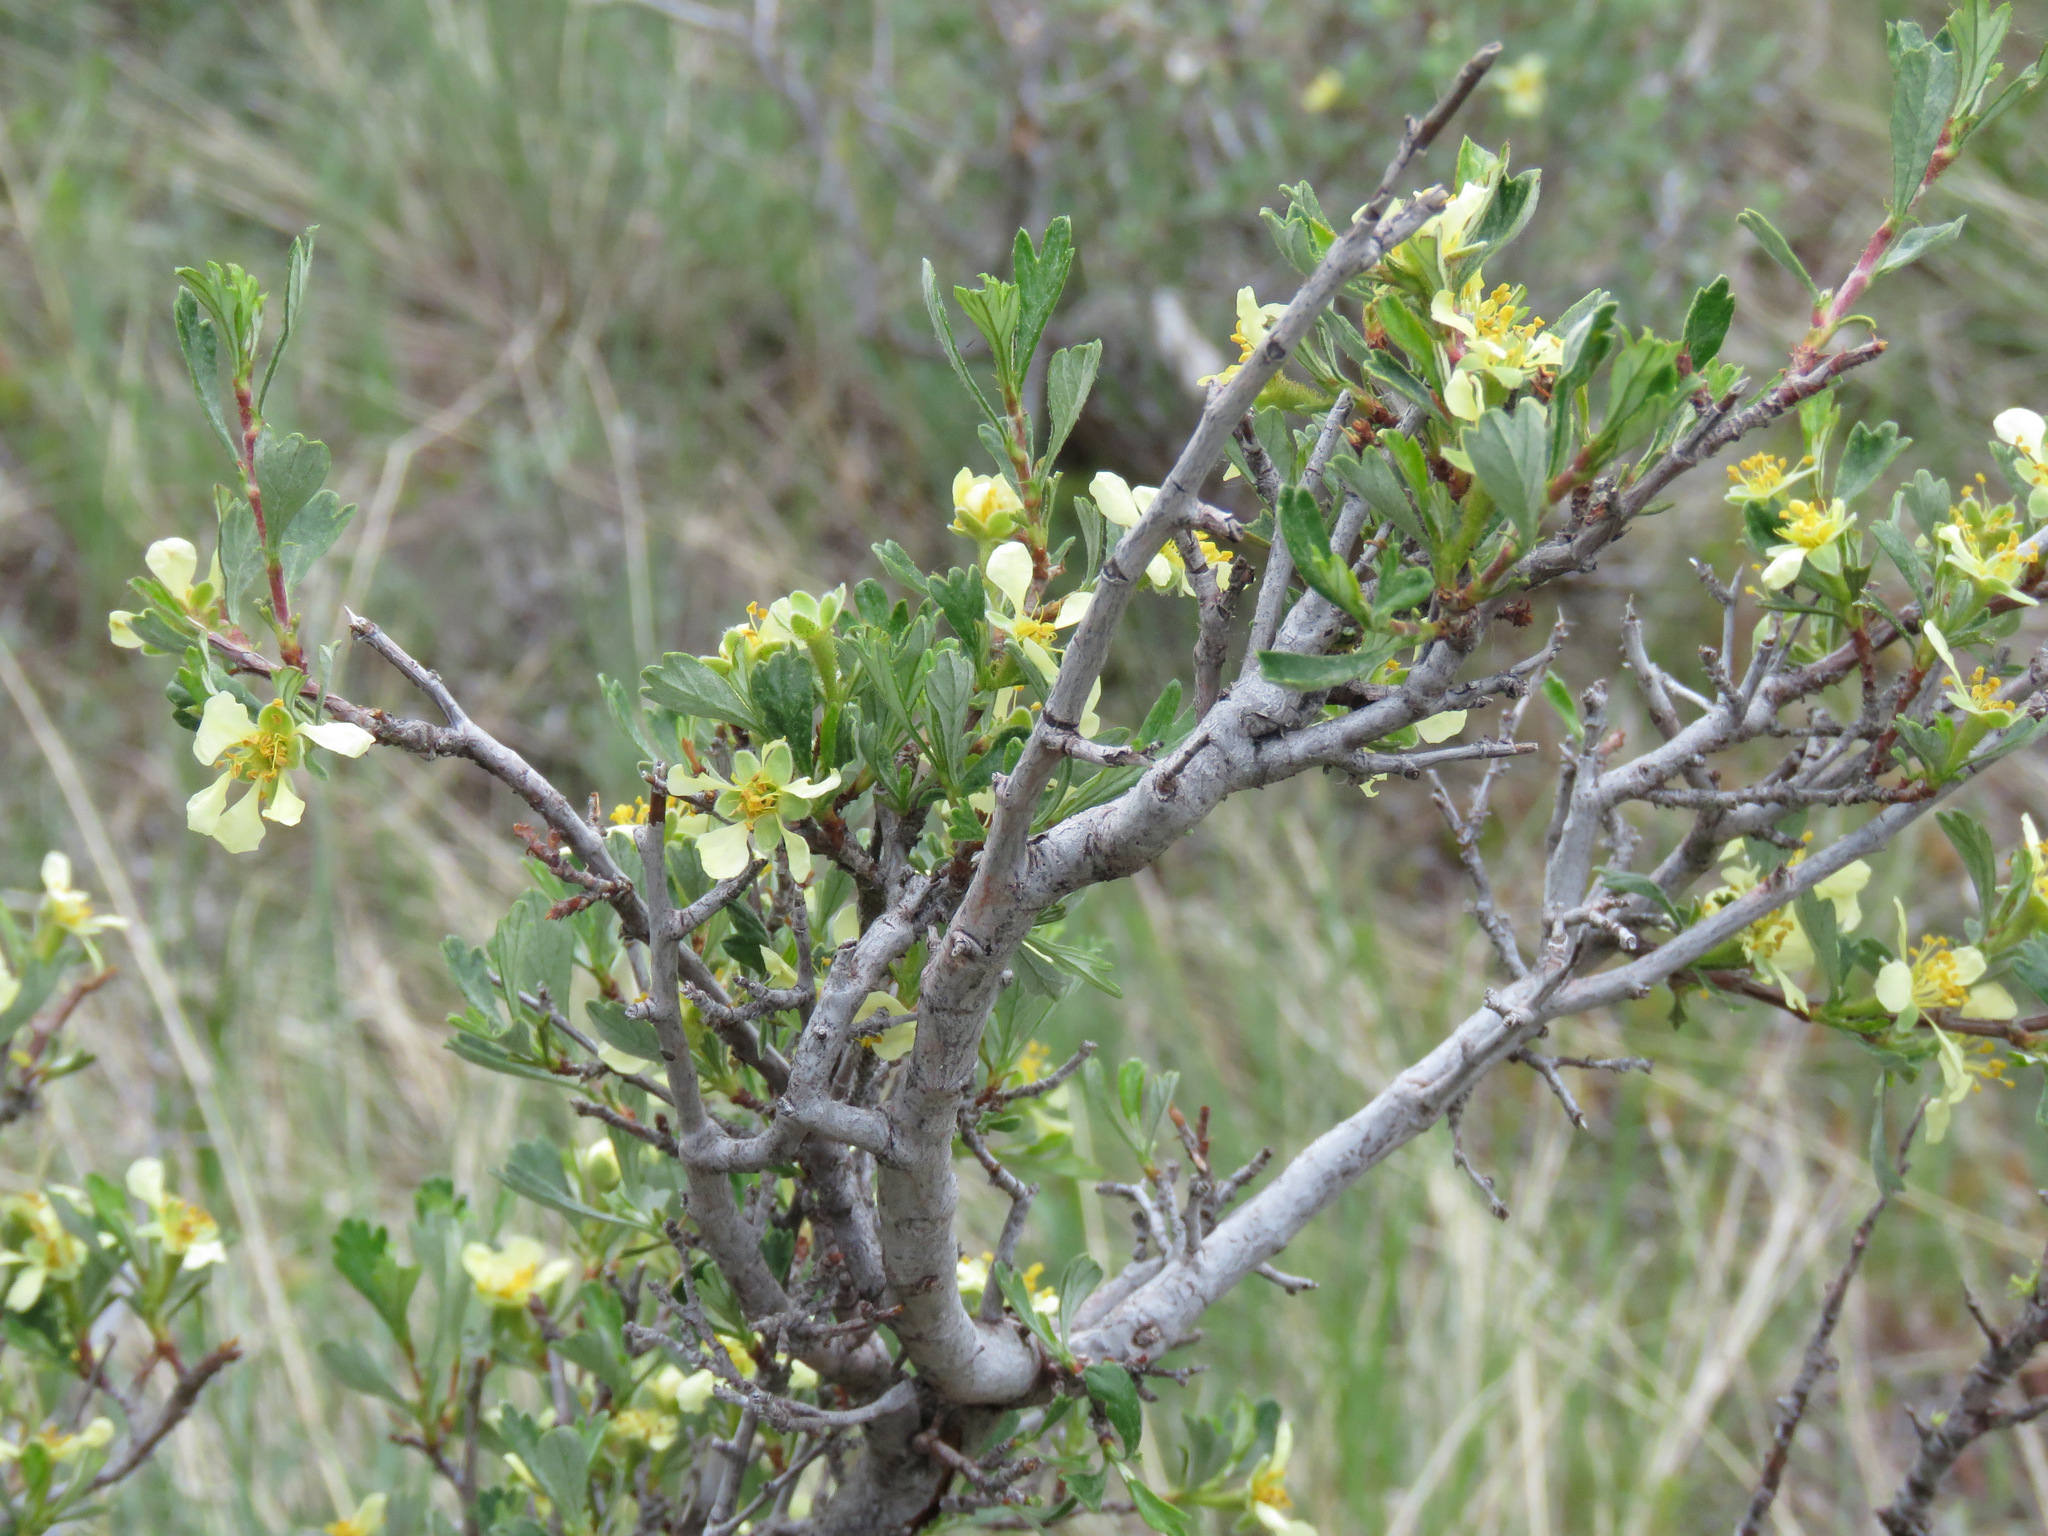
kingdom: Plantae
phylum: Tracheophyta
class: Magnoliopsida
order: Rosales
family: Rosaceae
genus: Purshia
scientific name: Purshia tridentata
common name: Antelope bitterbrush
